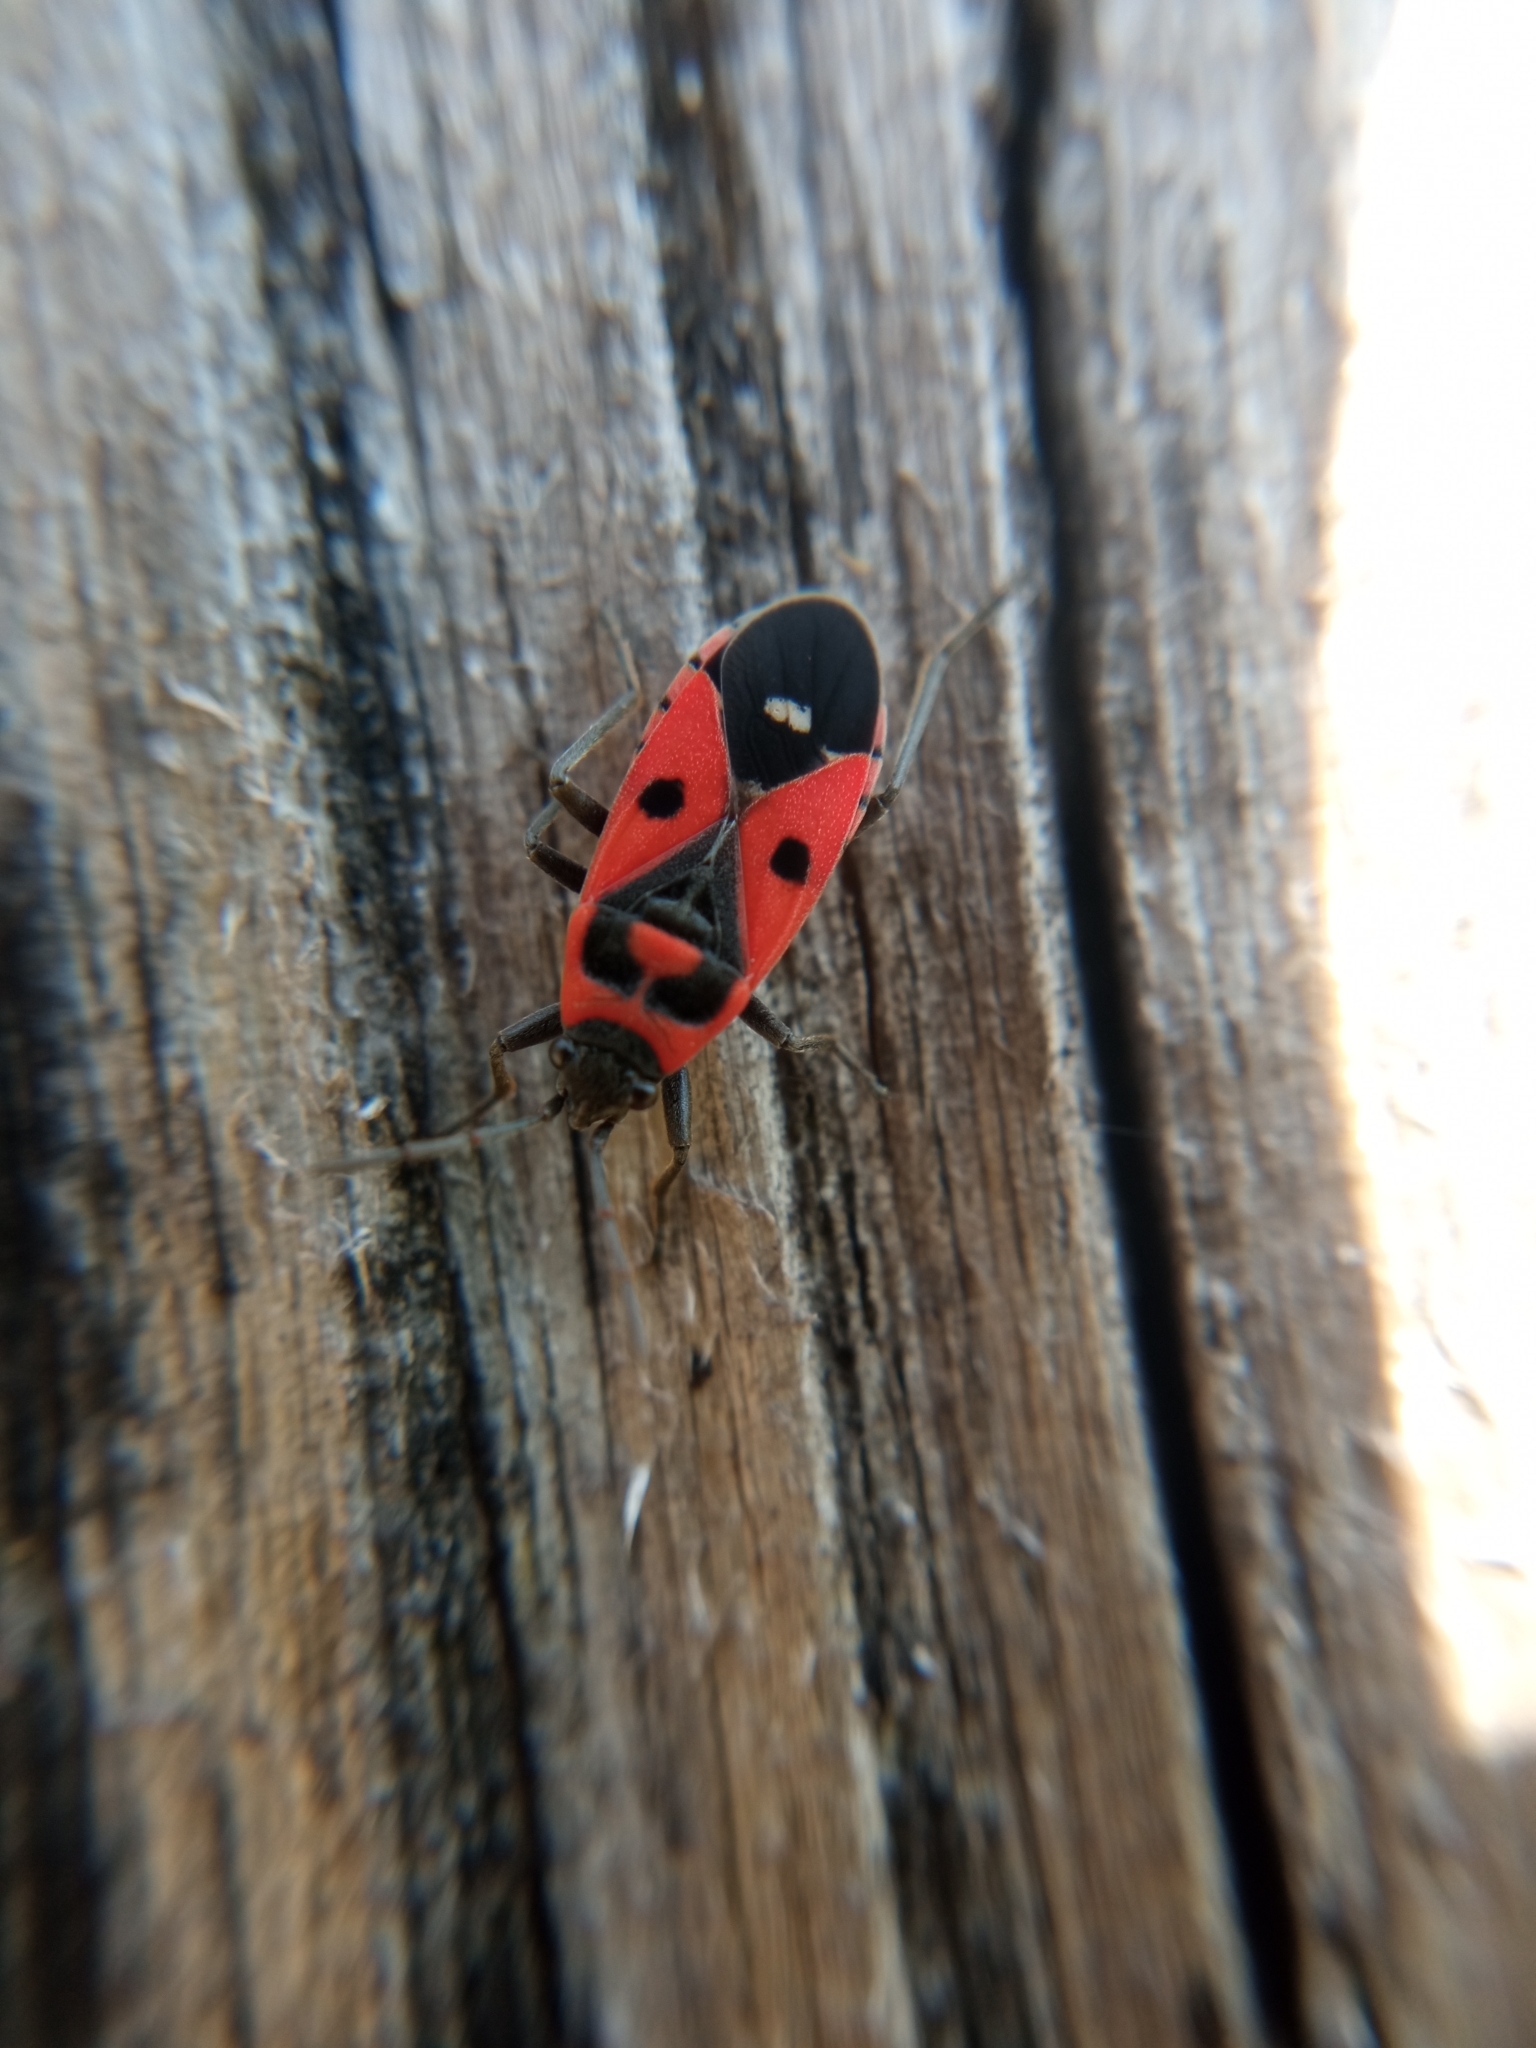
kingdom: Animalia
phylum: Arthropoda
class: Insecta
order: Hemiptera
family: Lygaeidae
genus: Melanocoryphus
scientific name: Melanocoryphus albomaculatus
